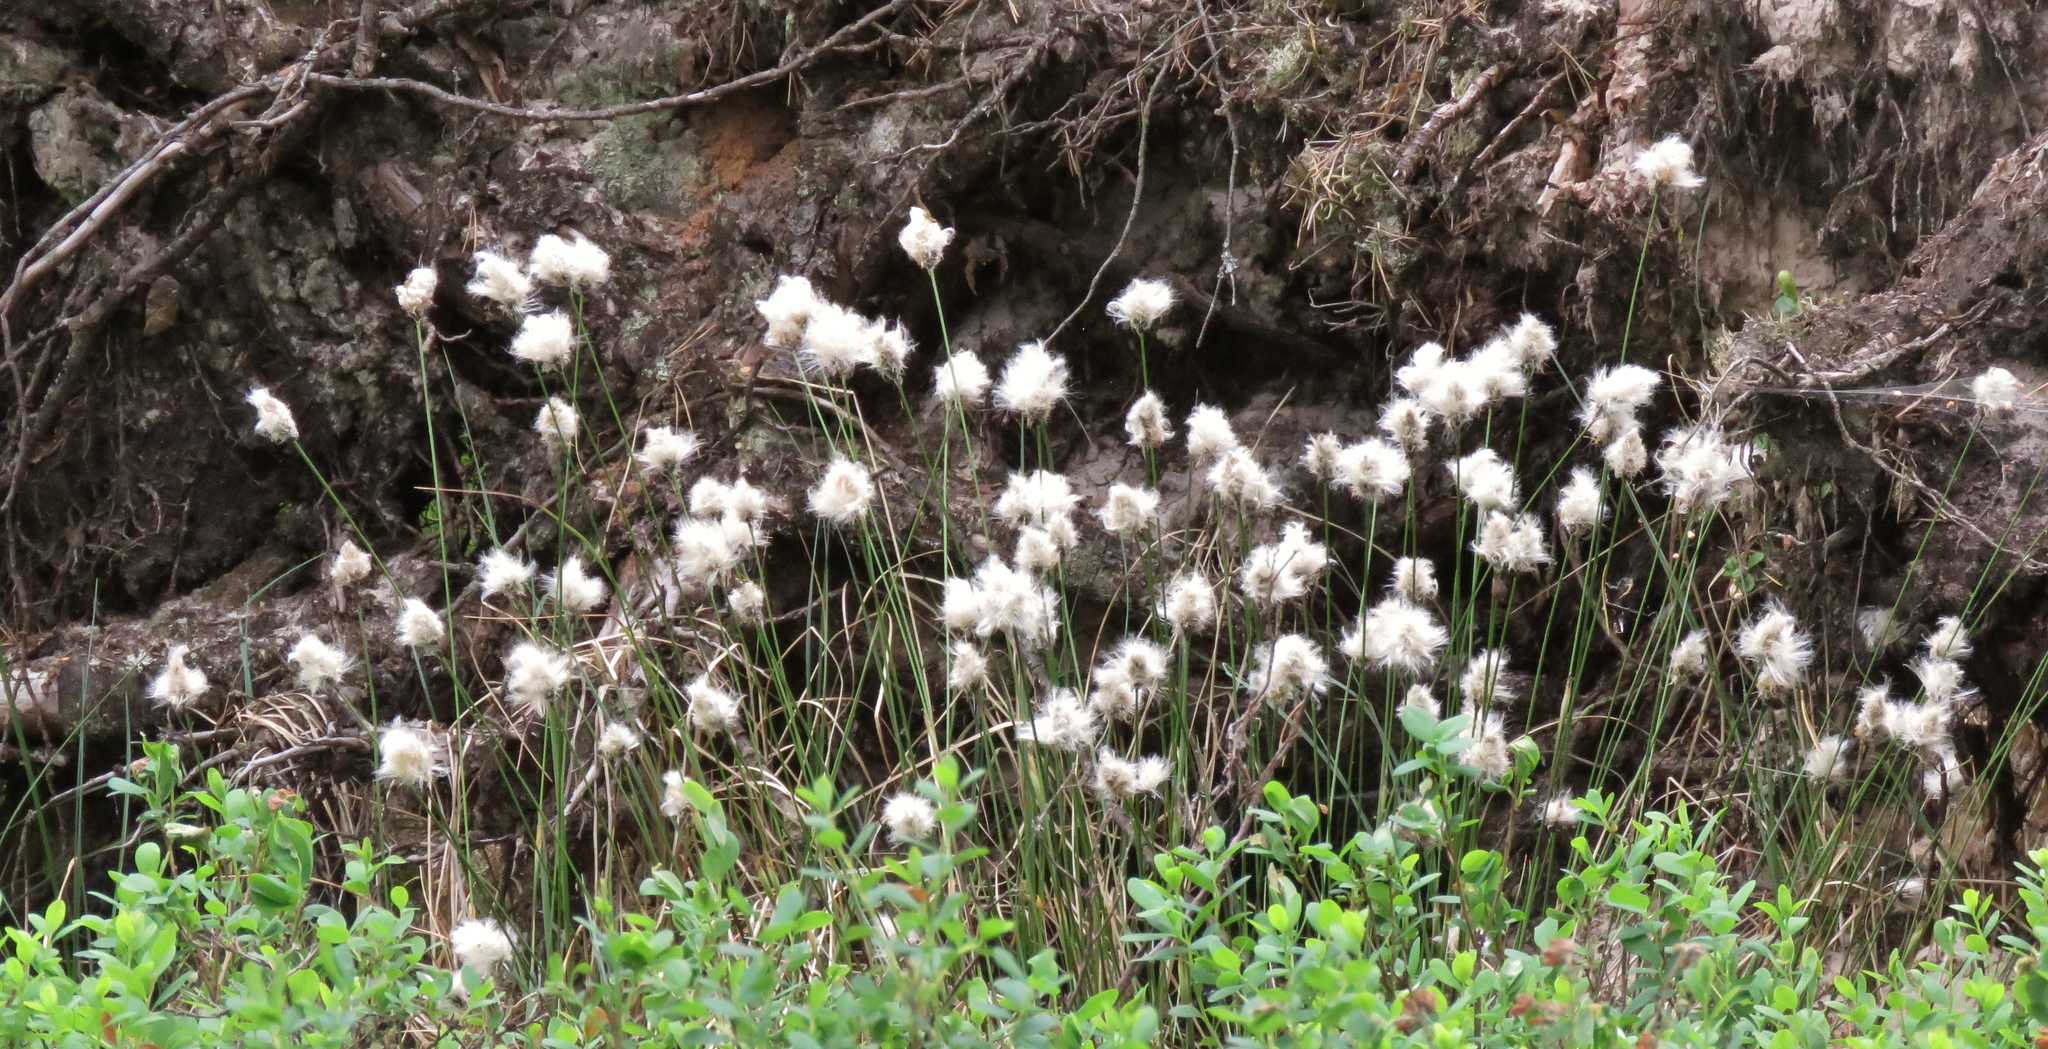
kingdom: Plantae
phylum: Tracheophyta
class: Liliopsida
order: Poales
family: Cyperaceae
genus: Eriophorum
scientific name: Eriophorum angustifolium
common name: Common cottongrass
